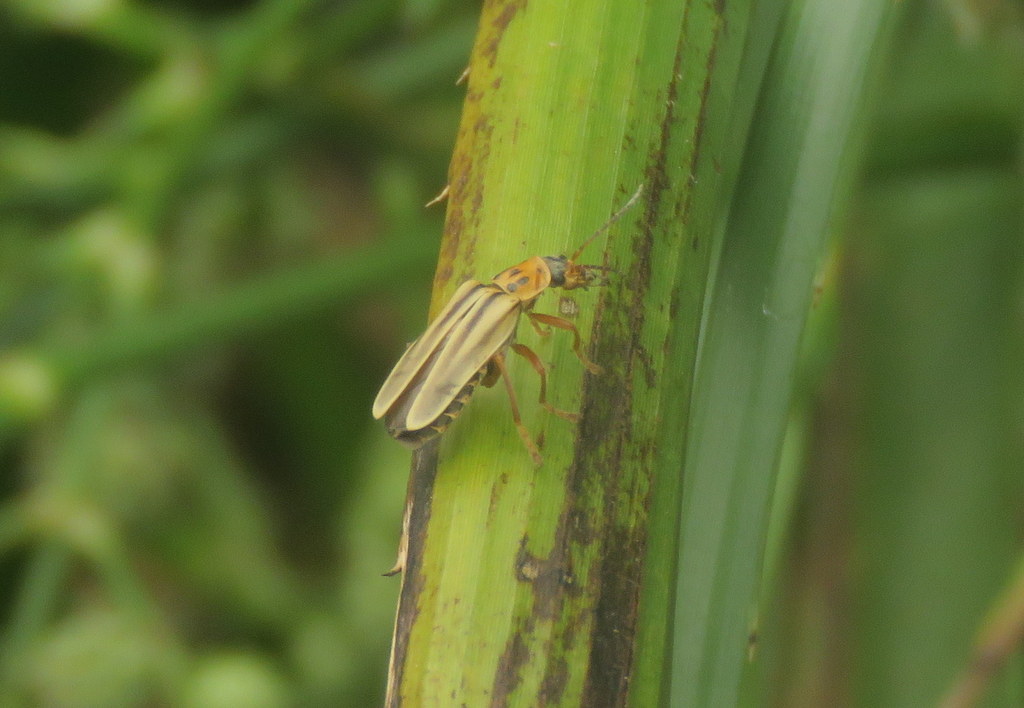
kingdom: Animalia
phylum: Arthropoda
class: Insecta
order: Coleoptera
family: Cantharidae
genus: Chauliognathus
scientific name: Chauliognathus
